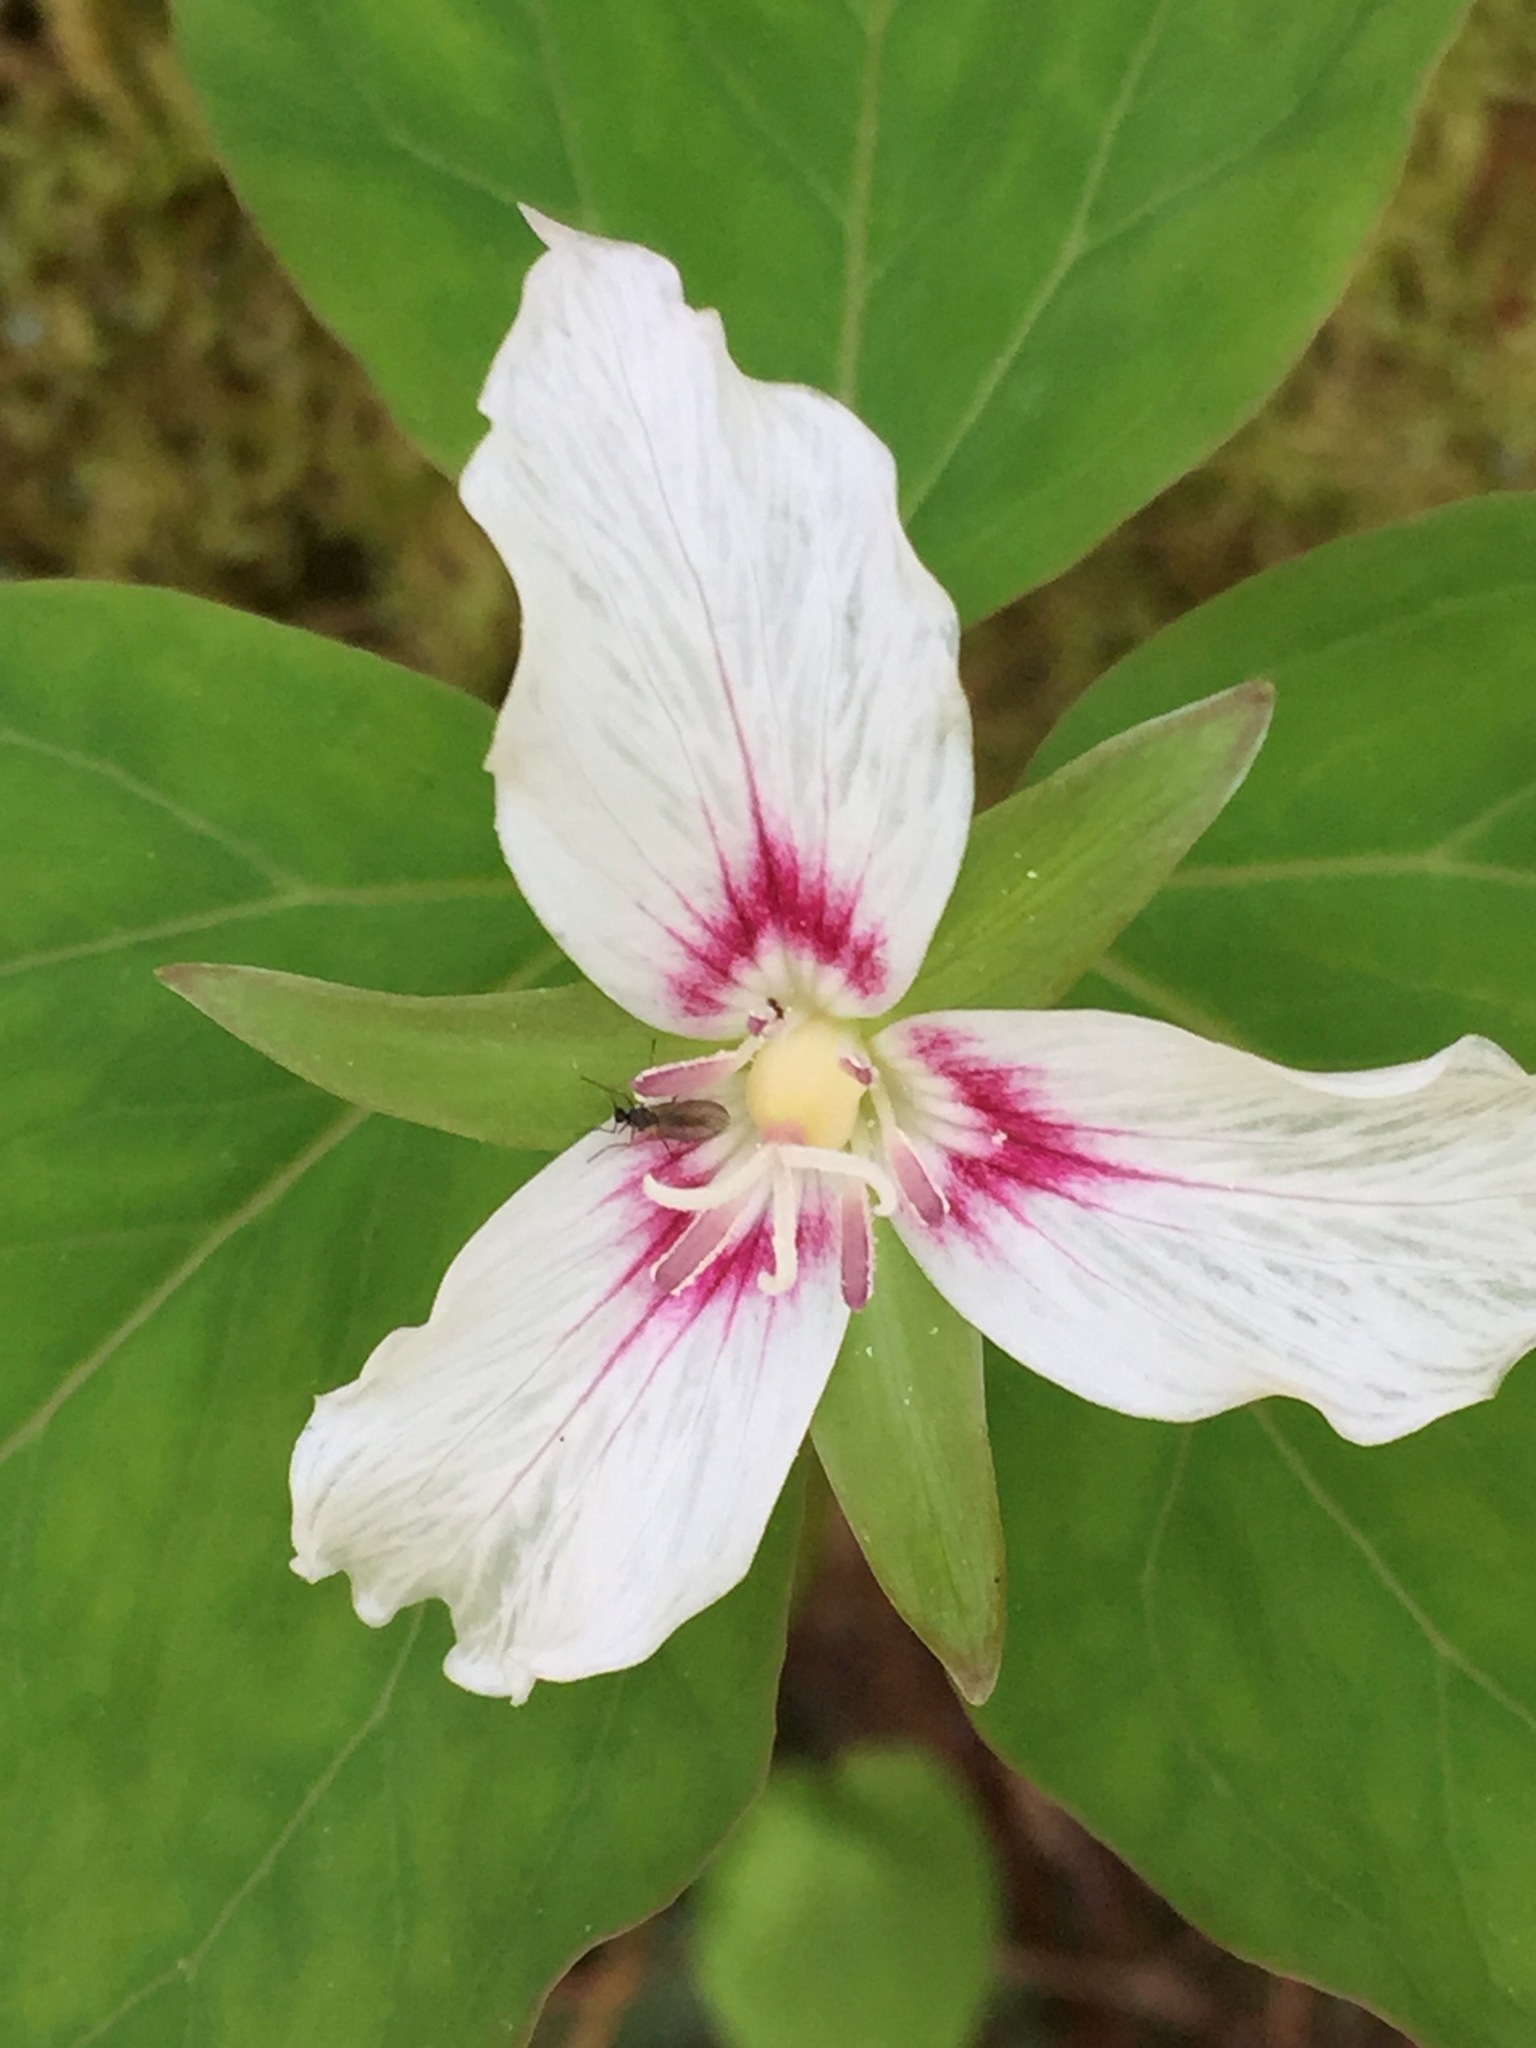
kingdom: Plantae
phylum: Tracheophyta
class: Liliopsida
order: Liliales
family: Melanthiaceae
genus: Trillium
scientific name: Trillium undulatum
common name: Paint trillium
